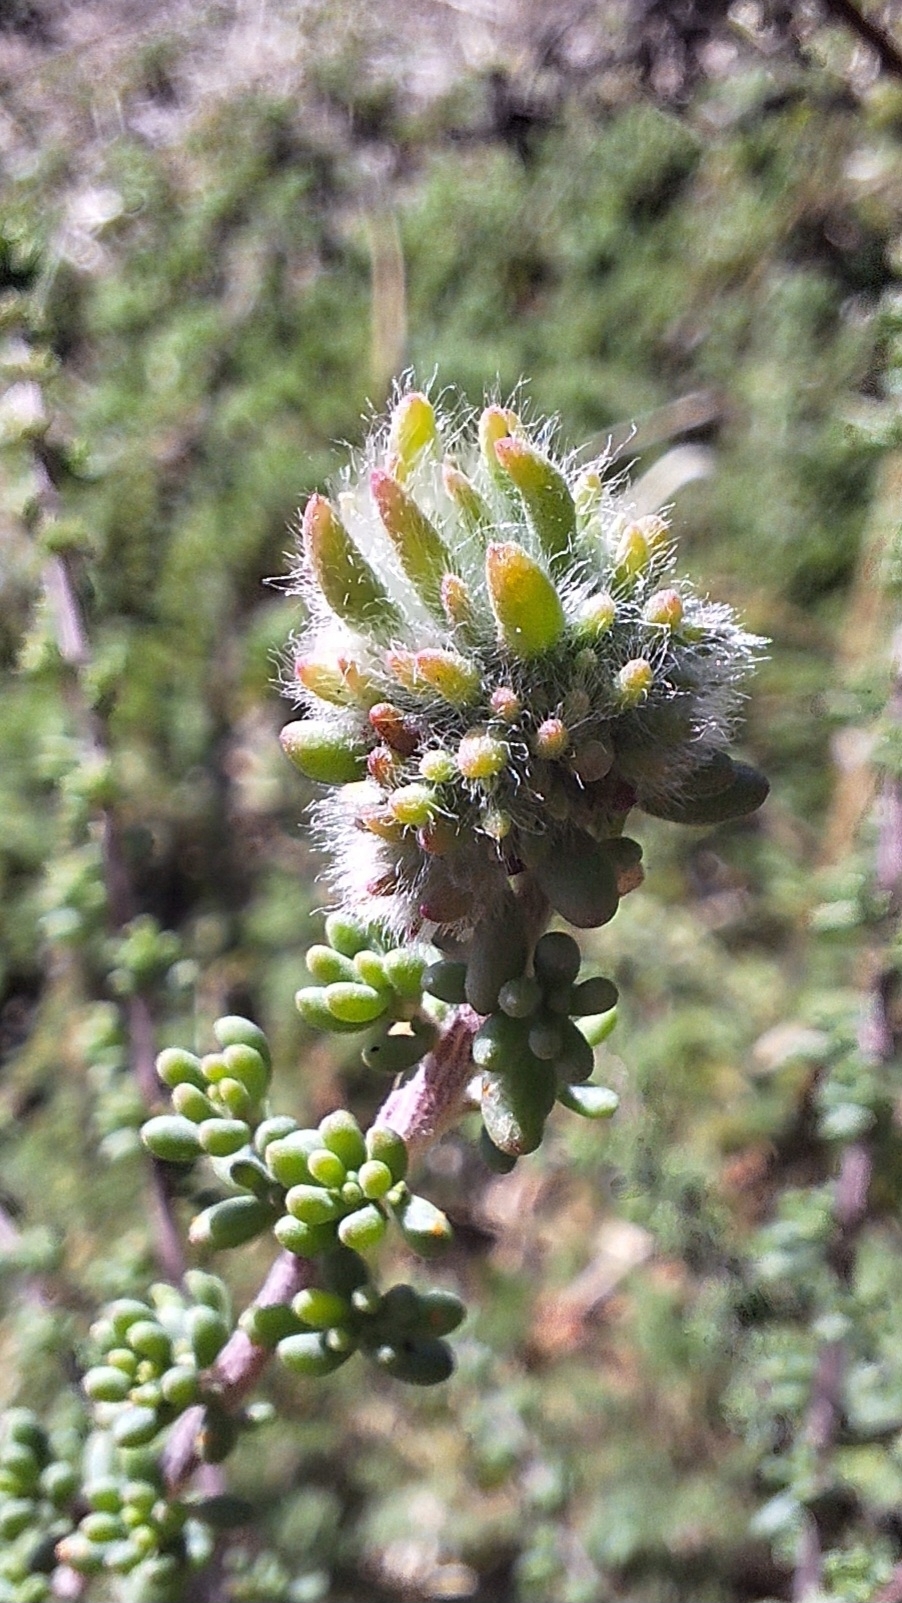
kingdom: Animalia
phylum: Arthropoda
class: Insecta
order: Diptera
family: Cecidomyiidae
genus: Dactylasioptera
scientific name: Dactylasioptera milnae
